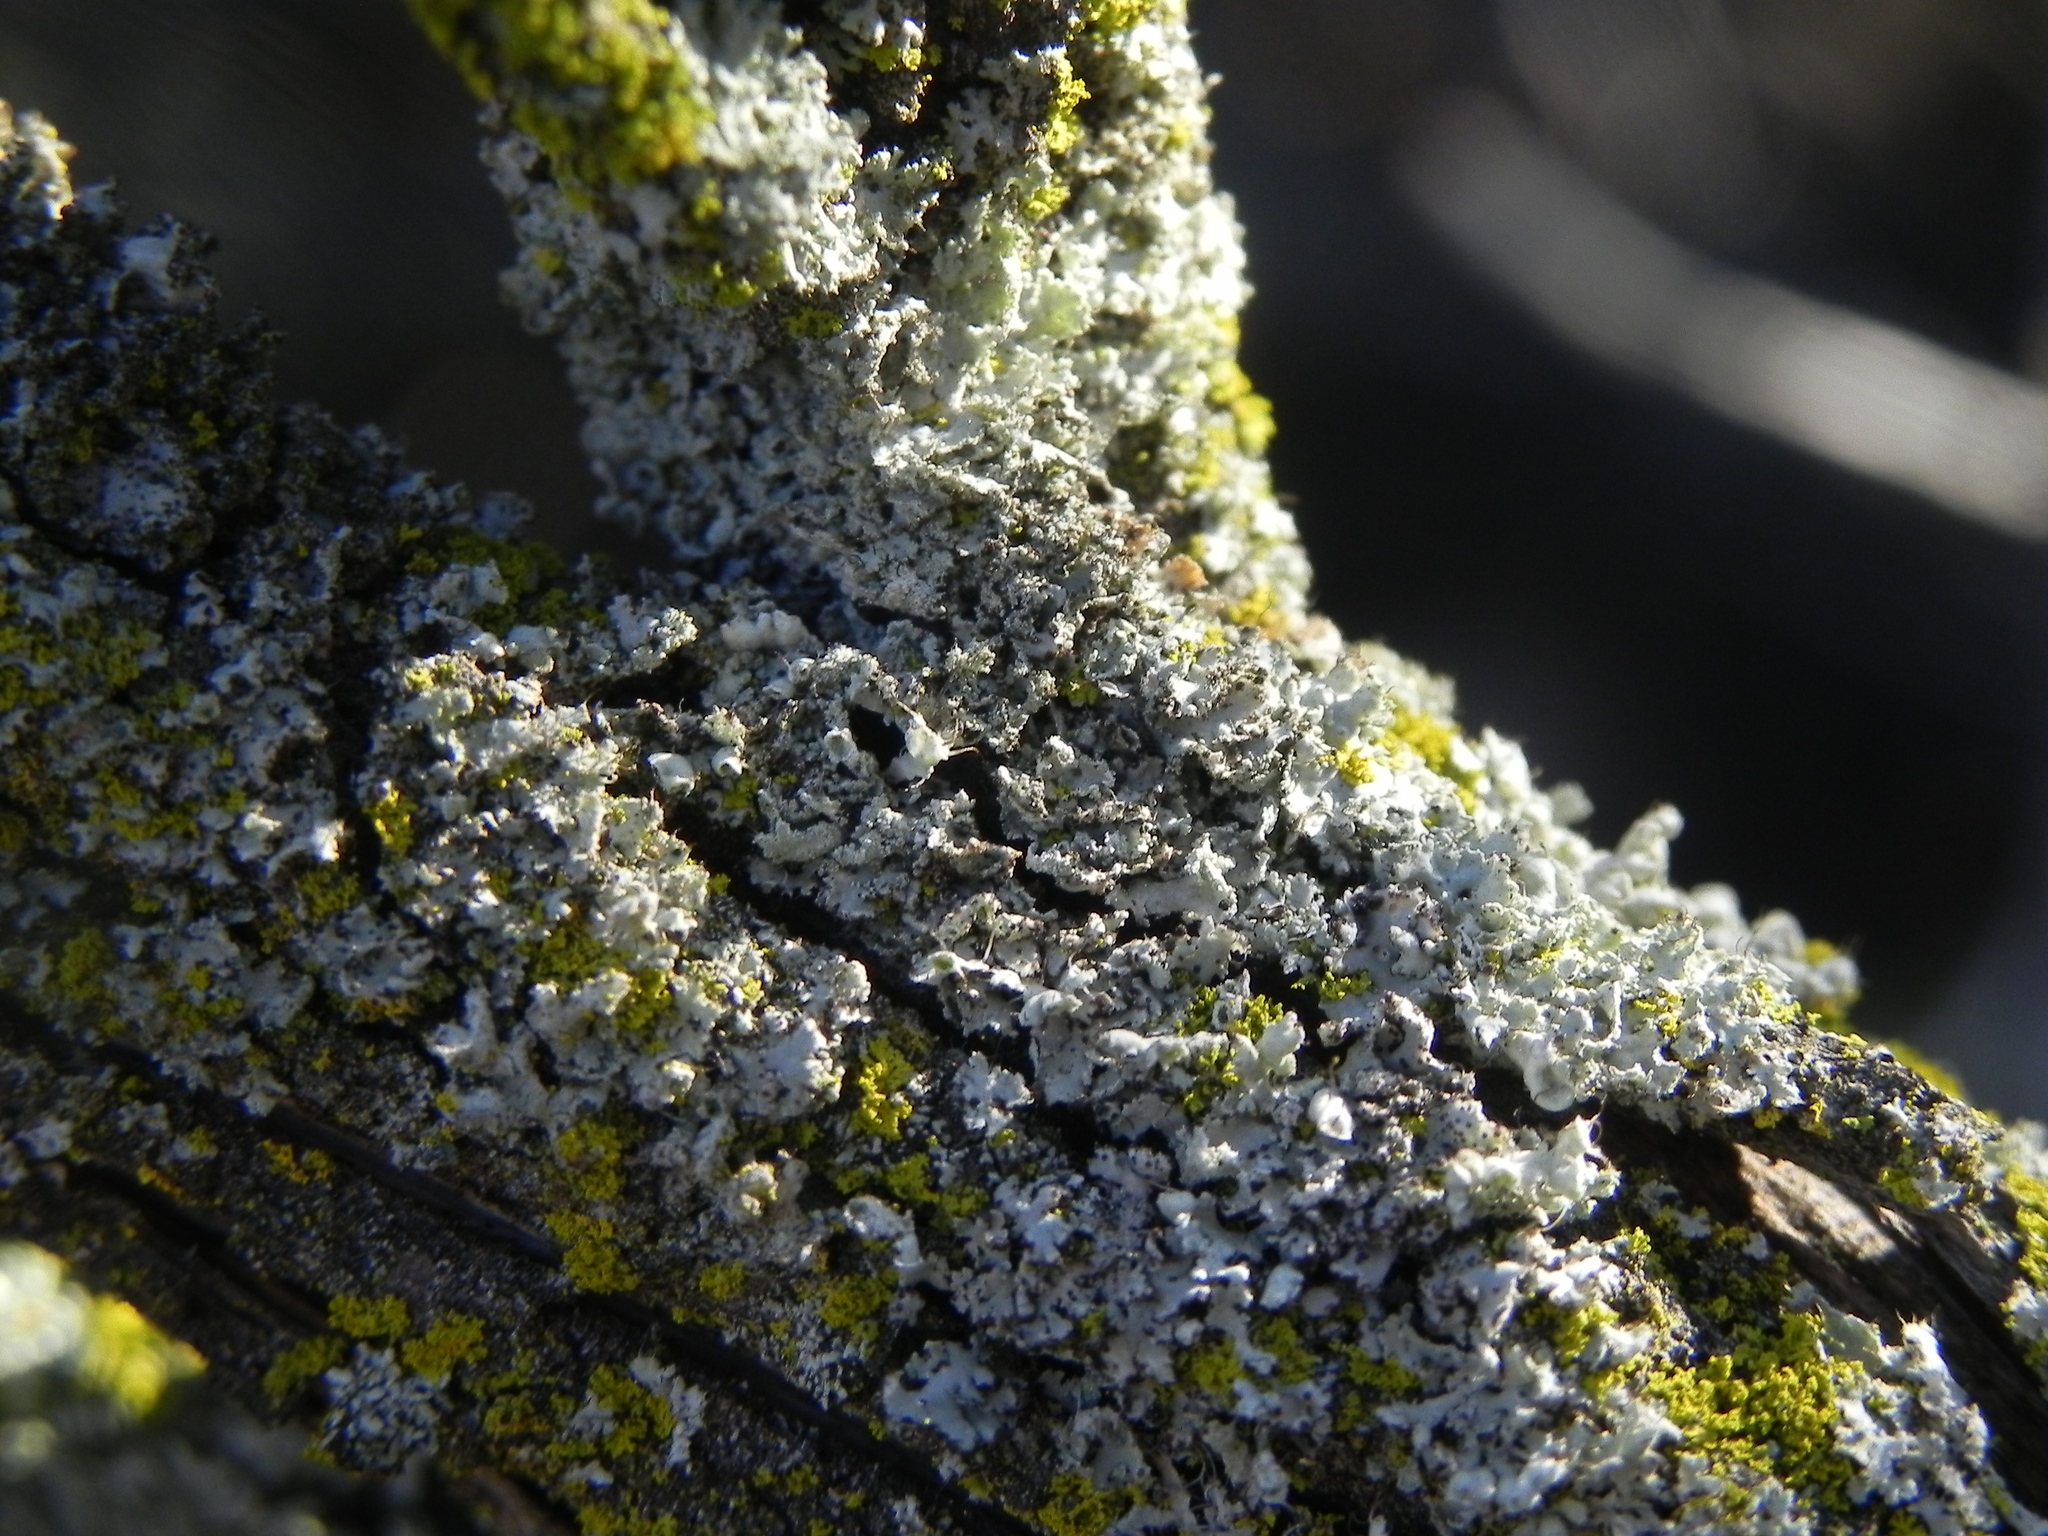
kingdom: Fungi
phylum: Ascomycota
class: Lecanoromycetes
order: Caliciales
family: Physciaceae
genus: Physcia
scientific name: Physcia adscendens
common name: Hooded rosette lichen
